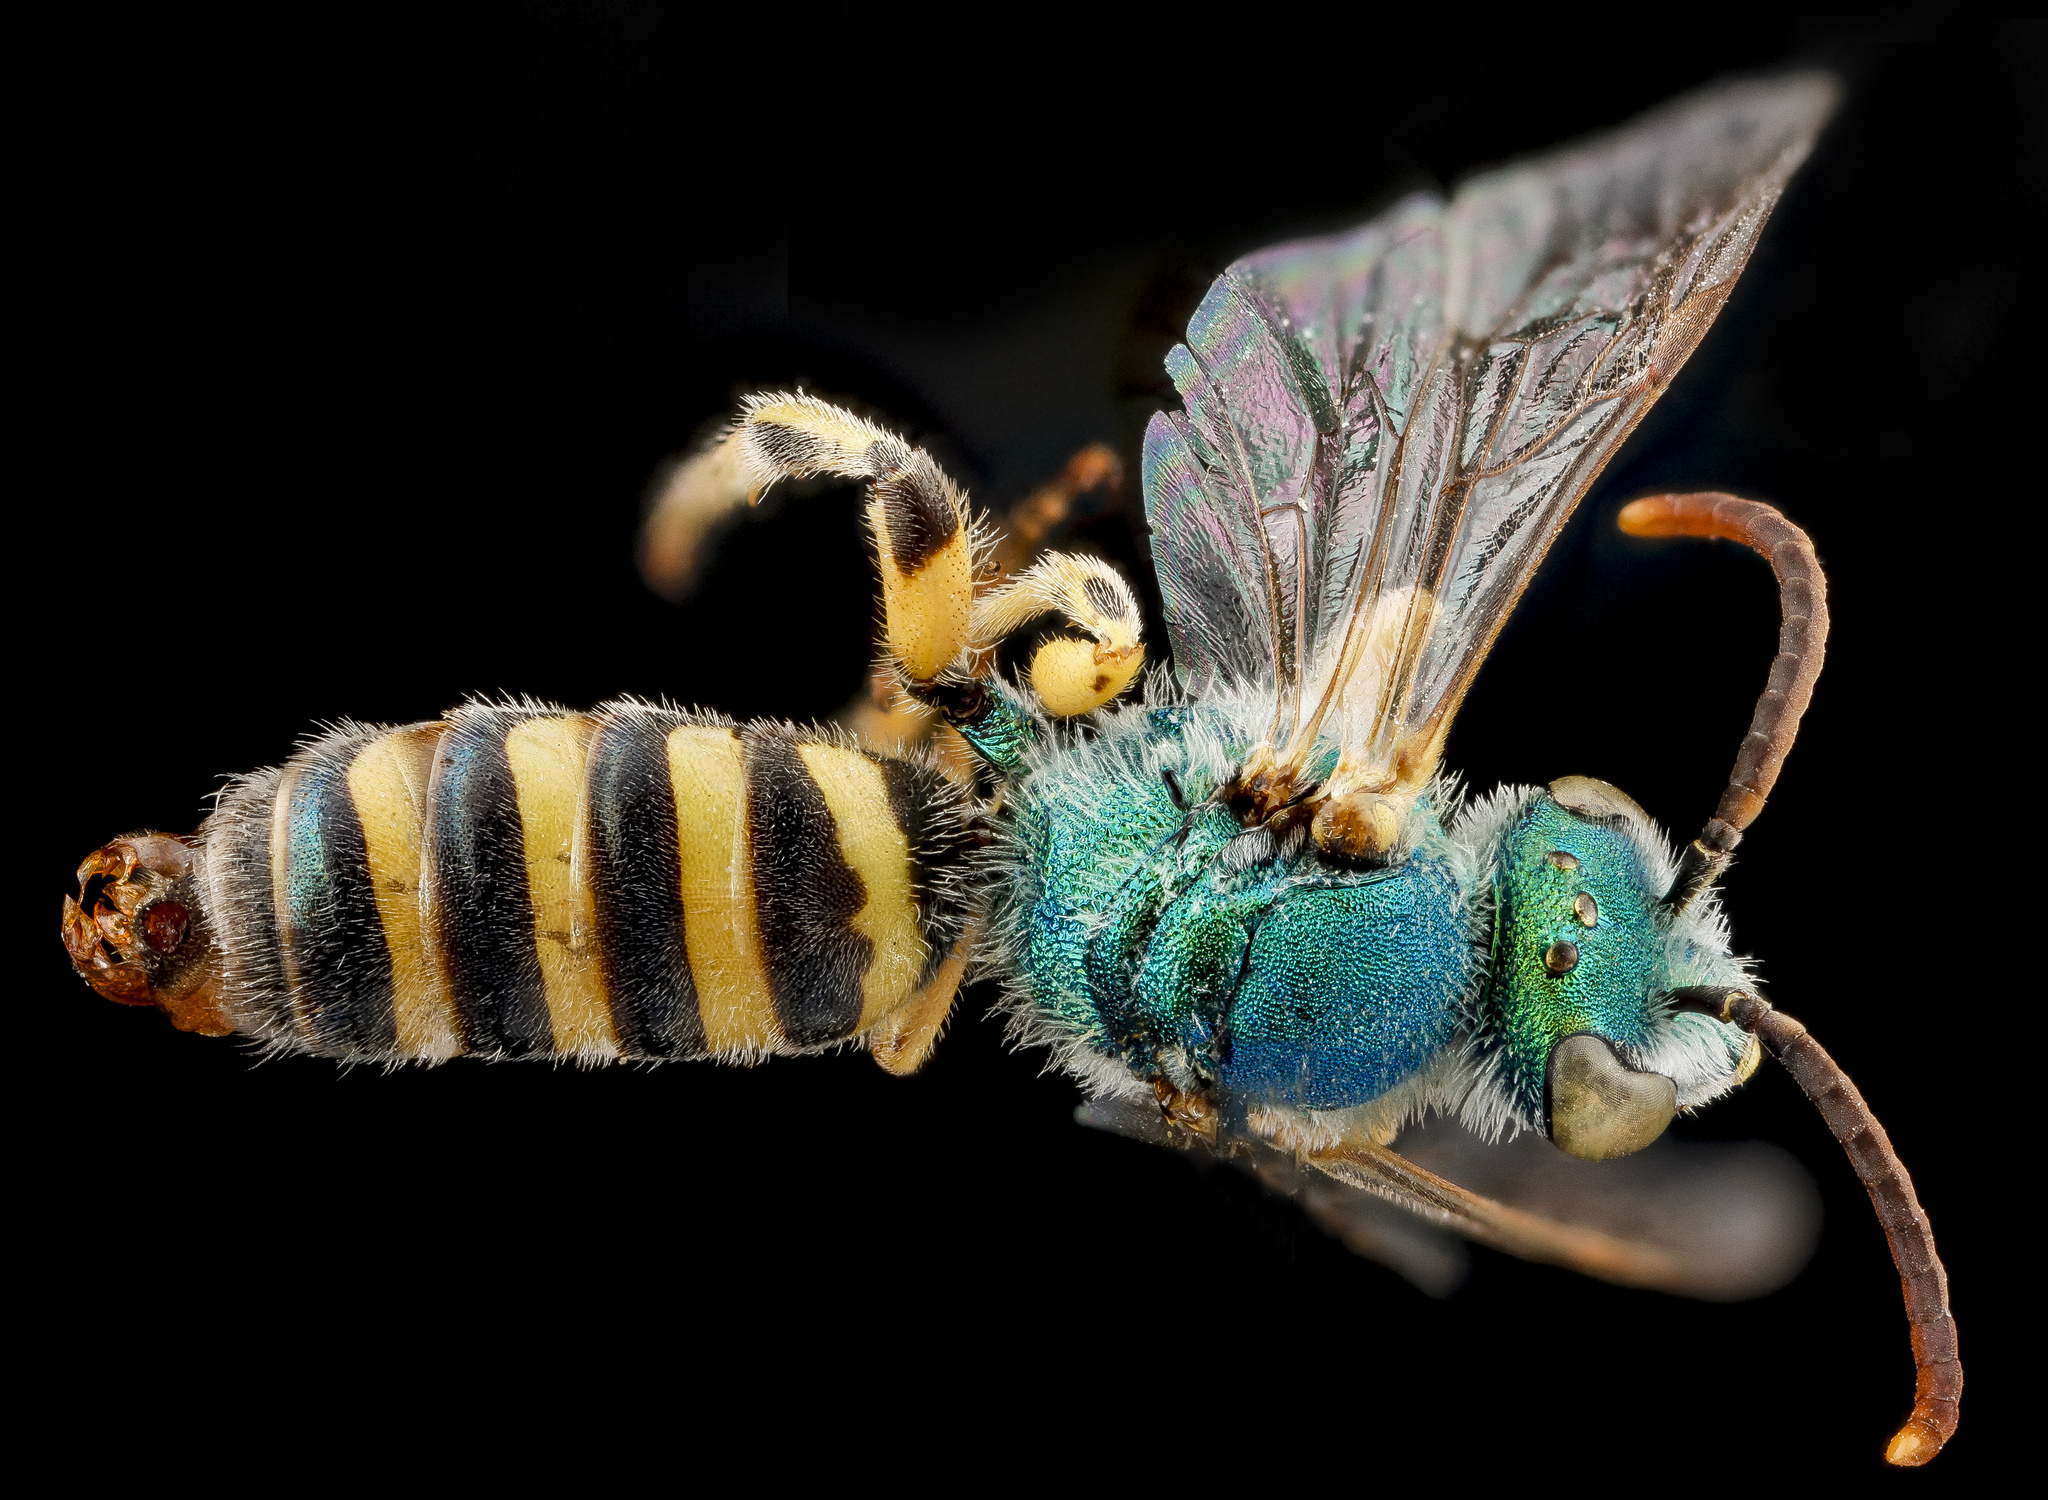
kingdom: Animalia
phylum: Arthropoda
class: Insecta
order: Hymenoptera
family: Halictidae
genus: Agapostemon
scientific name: Agapostemon angelicus
